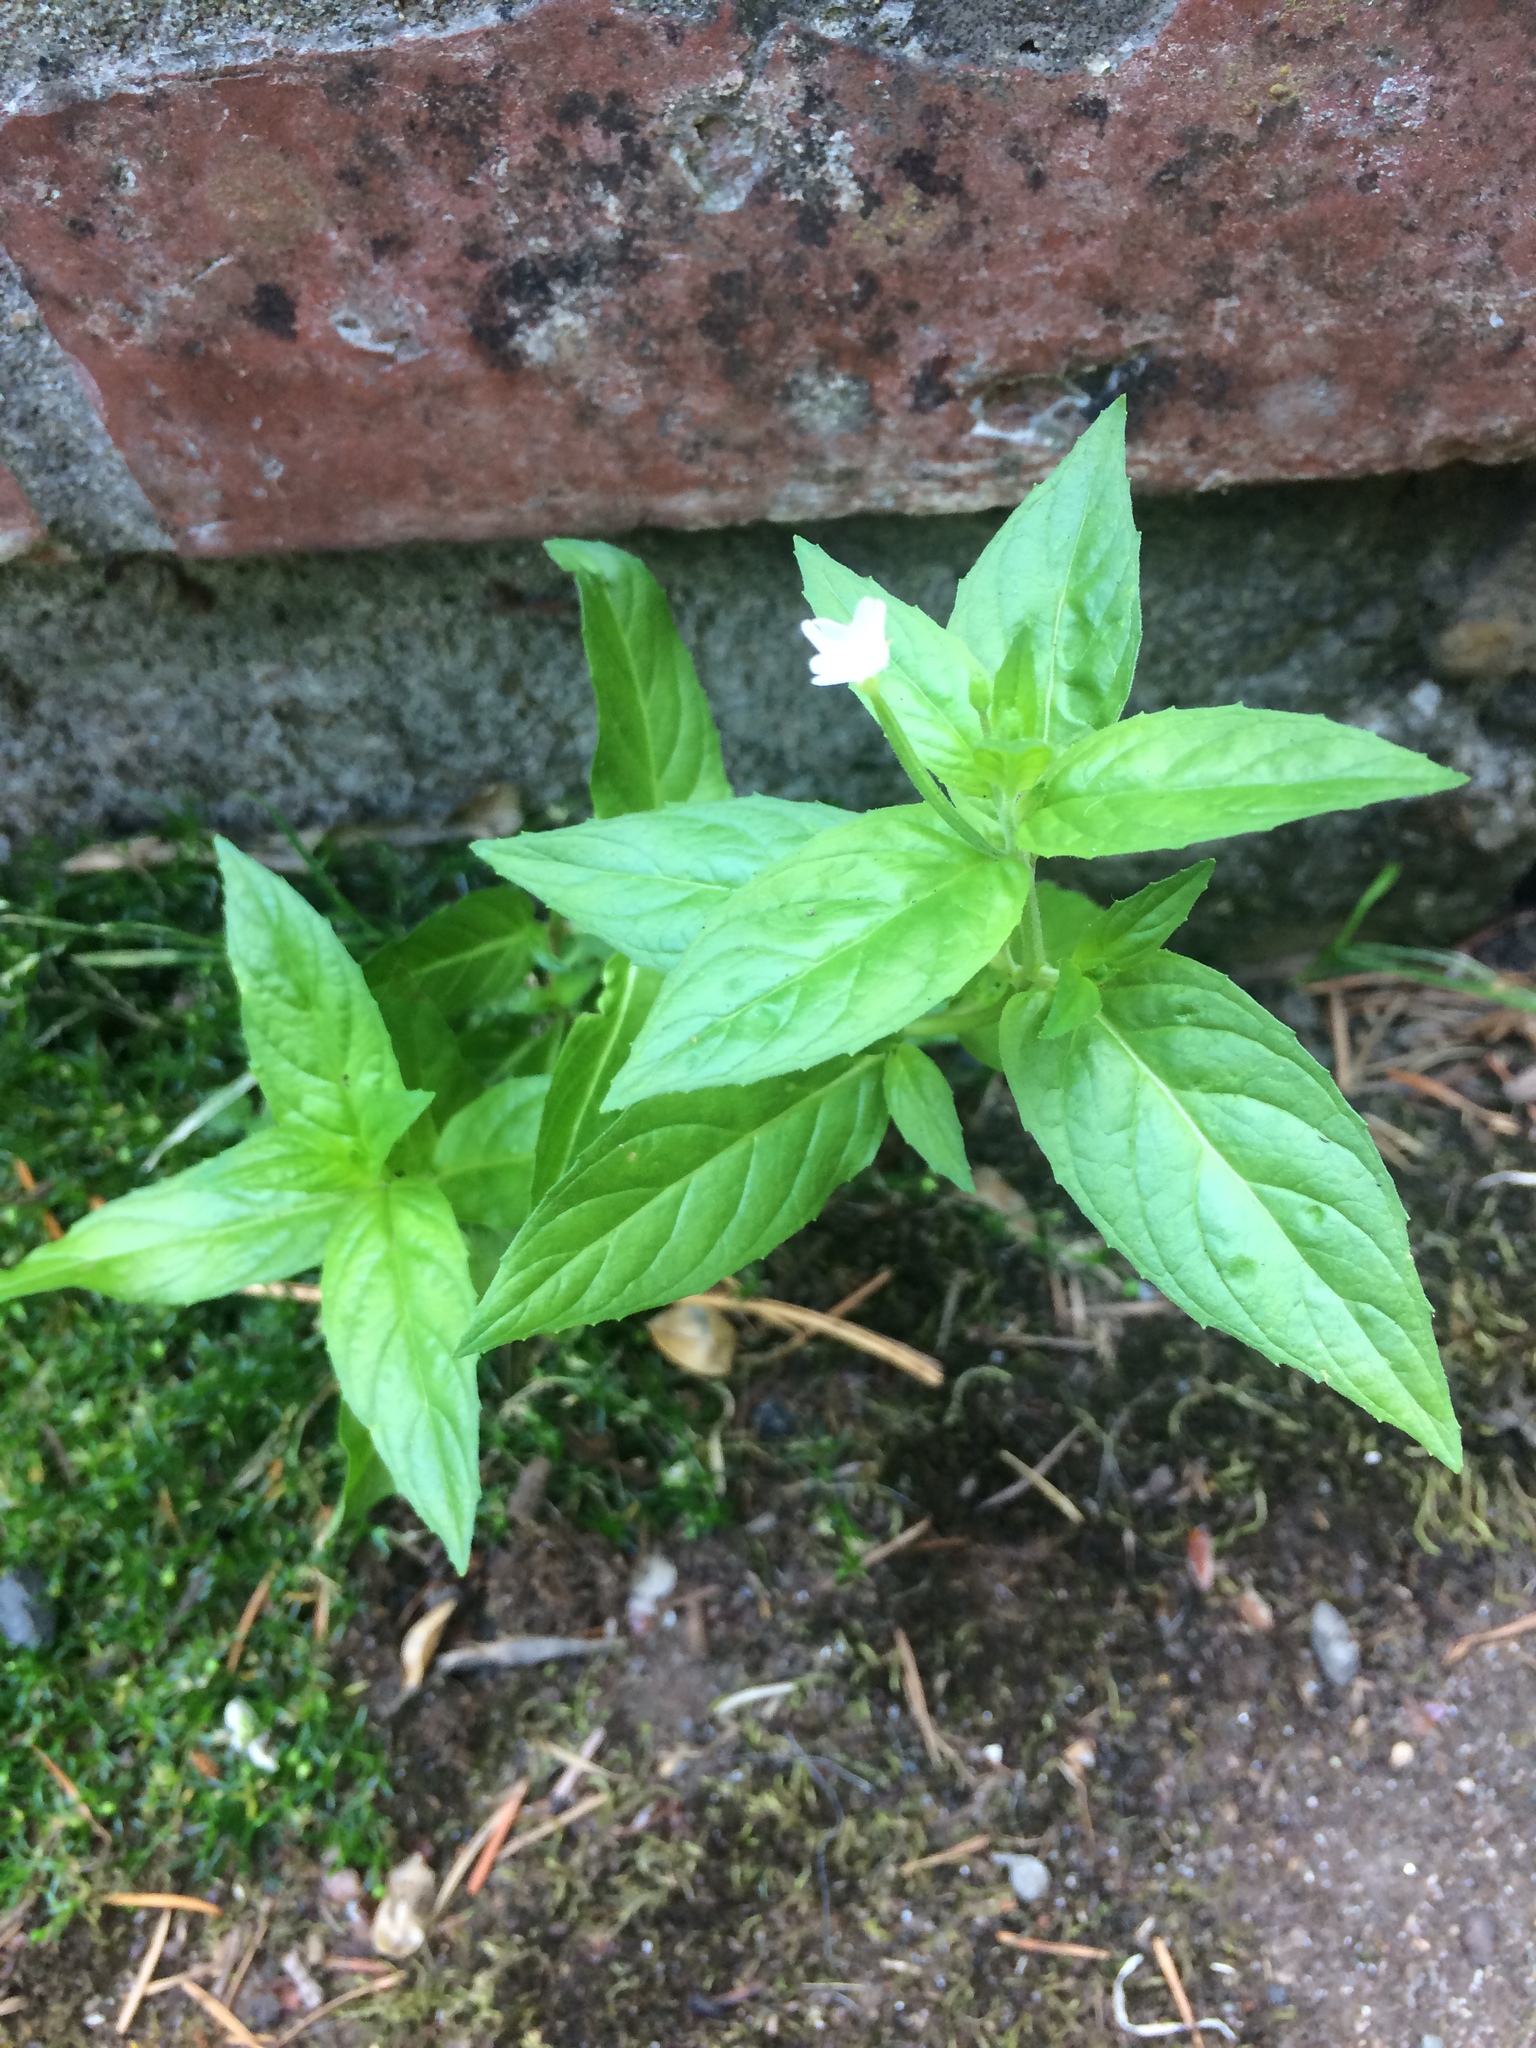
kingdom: Plantae
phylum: Tracheophyta
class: Magnoliopsida
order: Myrtales
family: Onagraceae
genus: Epilobium
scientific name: Epilobium ciliatum
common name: American willowherb
